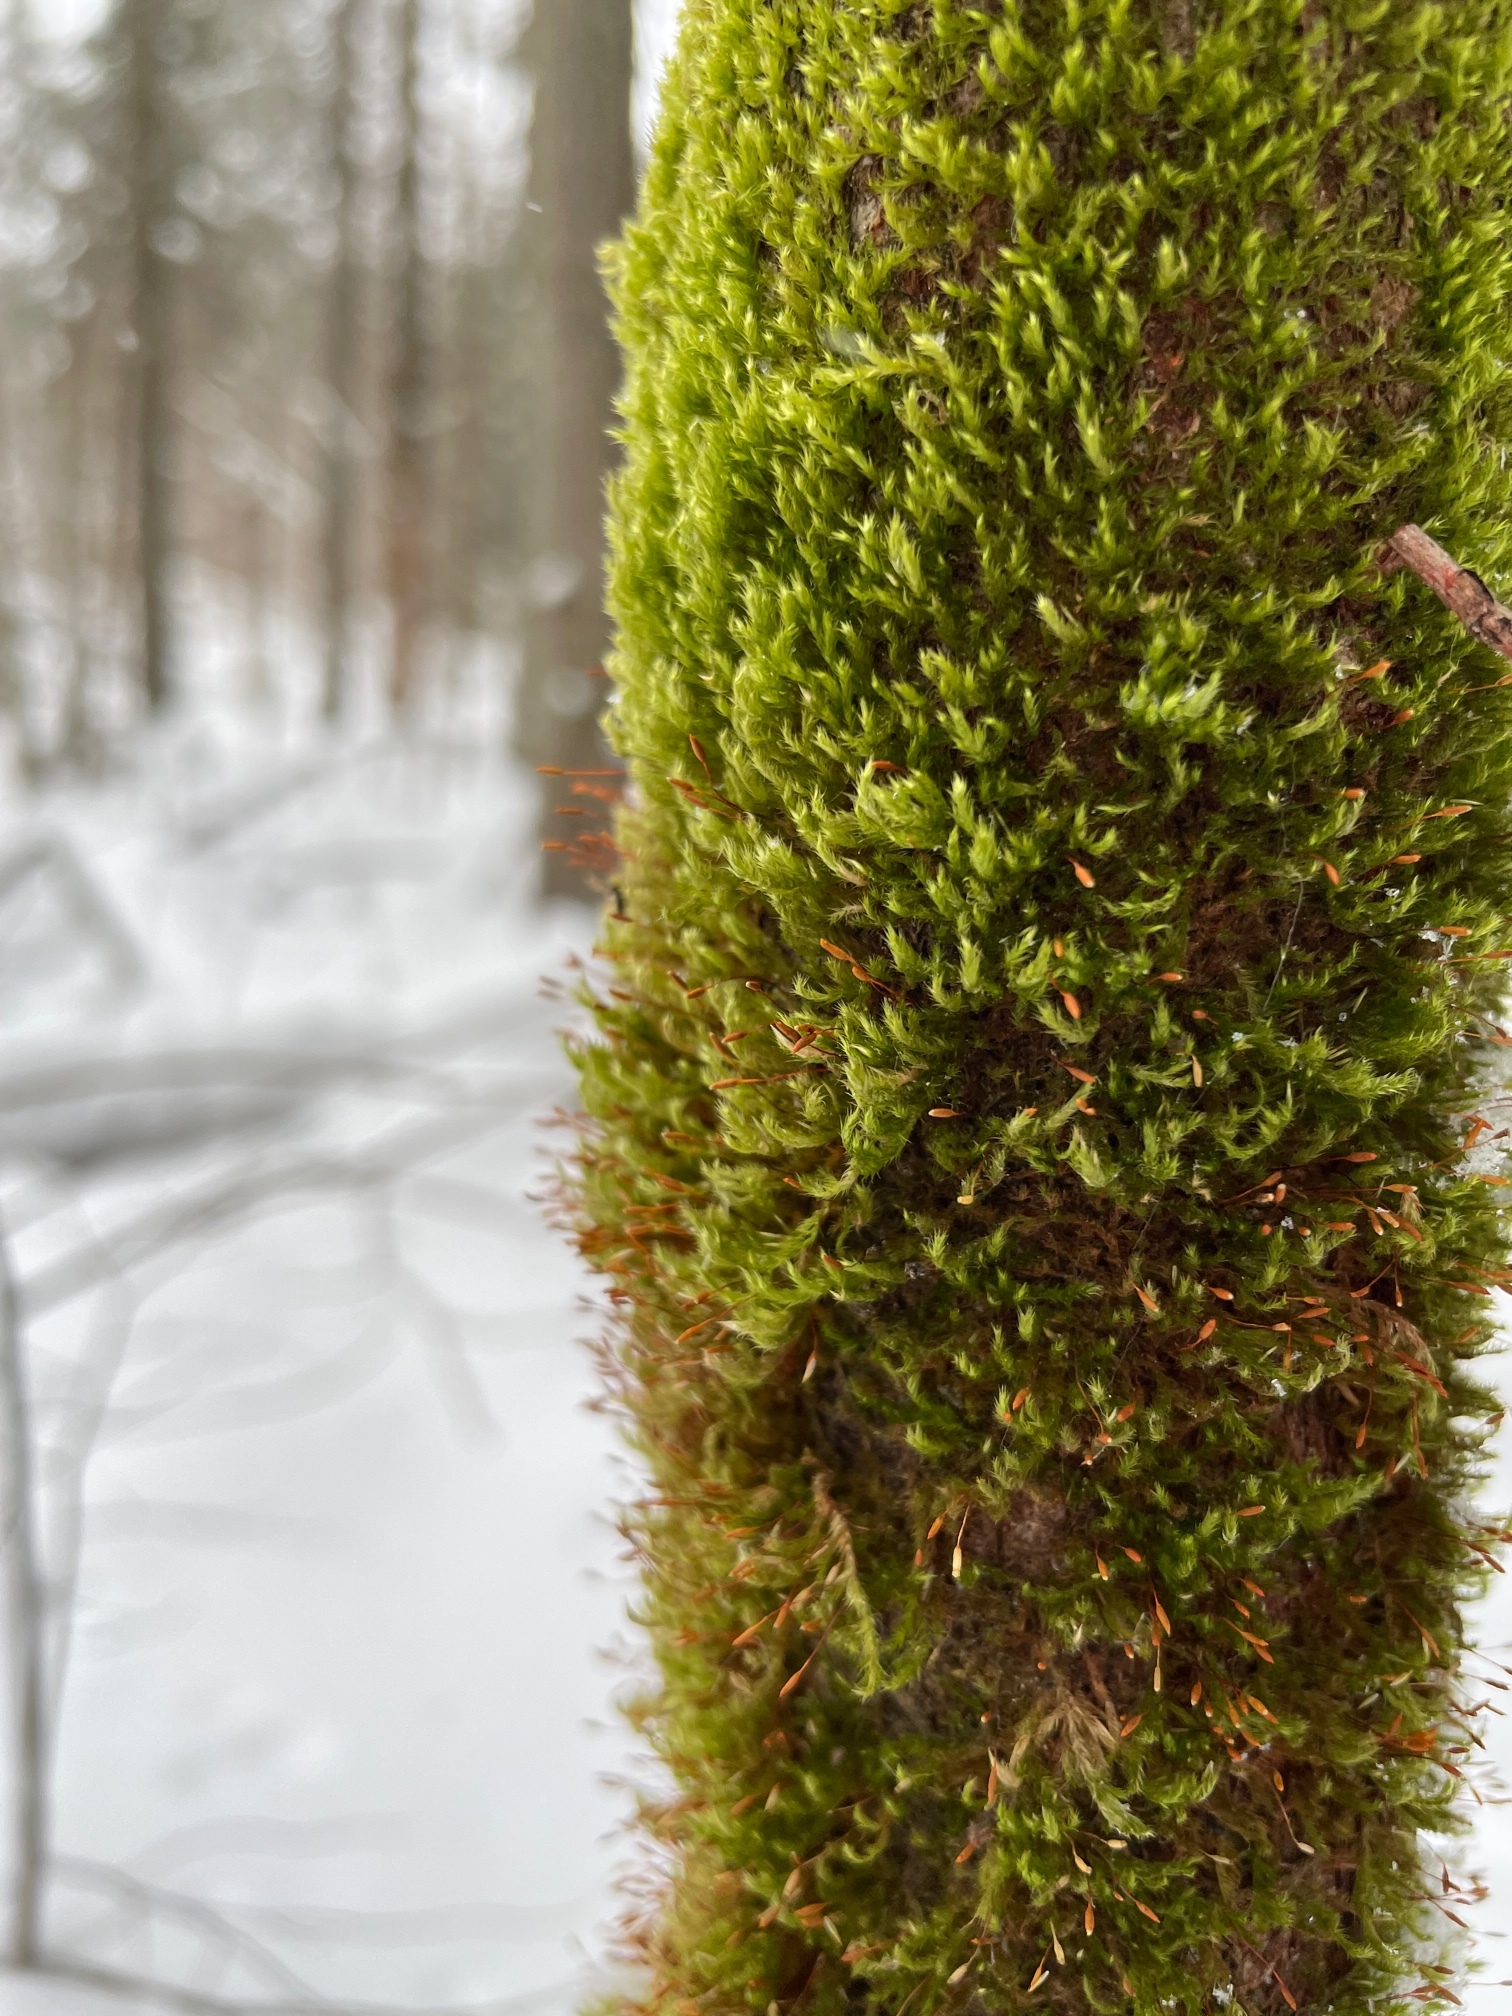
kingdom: Plantae
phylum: Bryophyta
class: Bryopsida
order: Hypnales
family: Pylaisiaceae
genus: Pylaisia
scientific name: Pylaisia polyantha
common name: Many-flowered leskea
